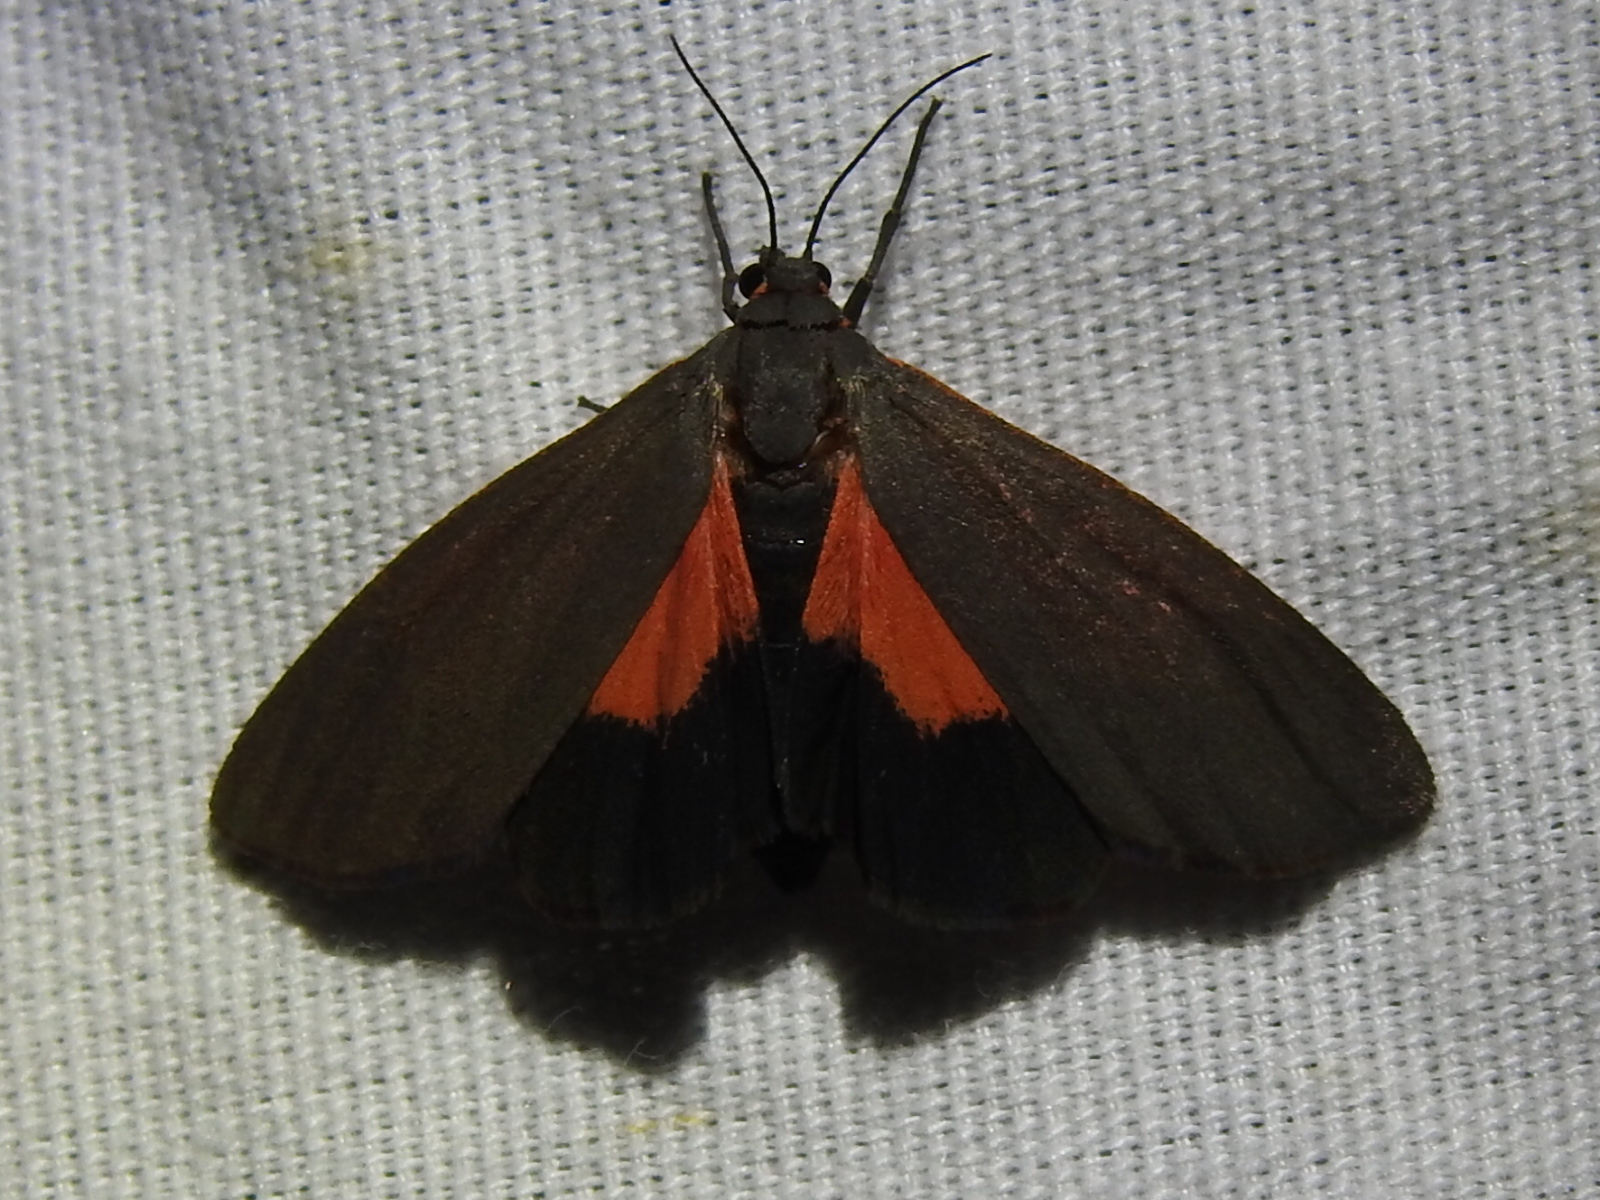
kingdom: Animalia
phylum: Arthropoda
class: Insecta
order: Lepidoptera
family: Erebidae
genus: Virbia
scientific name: Virbia costata
